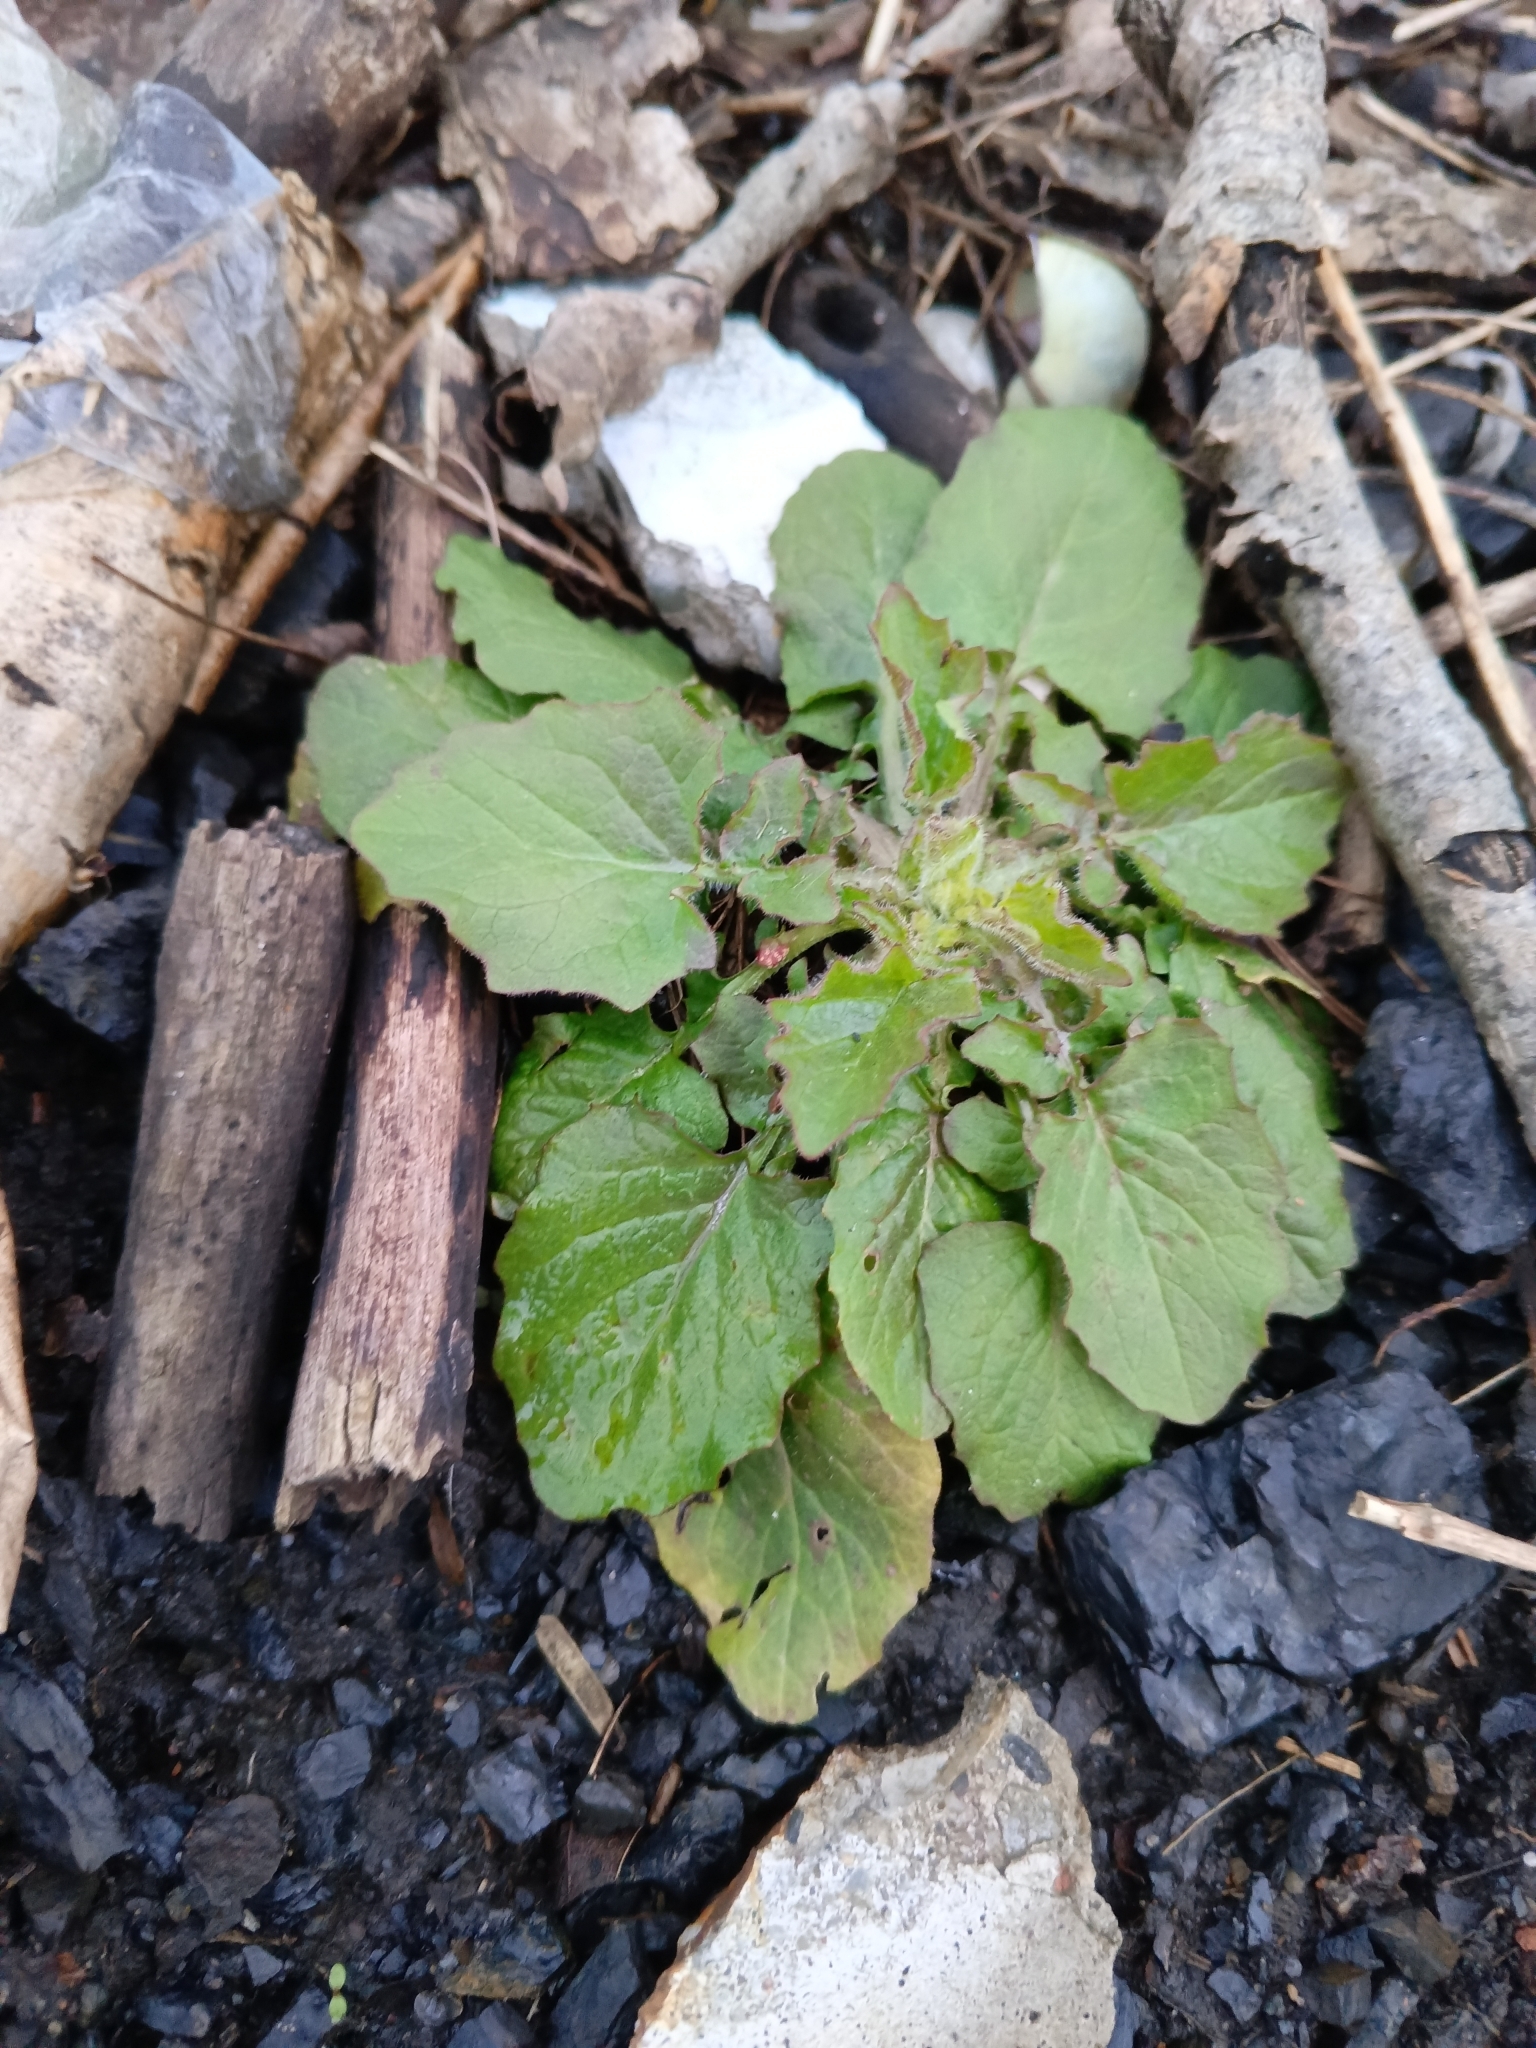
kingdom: Plantae
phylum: Tracheophyta
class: Magnoliopsida
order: Asterales
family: Asteraceae
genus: Lapsana
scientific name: Lapsana communis
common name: Nipplewort
